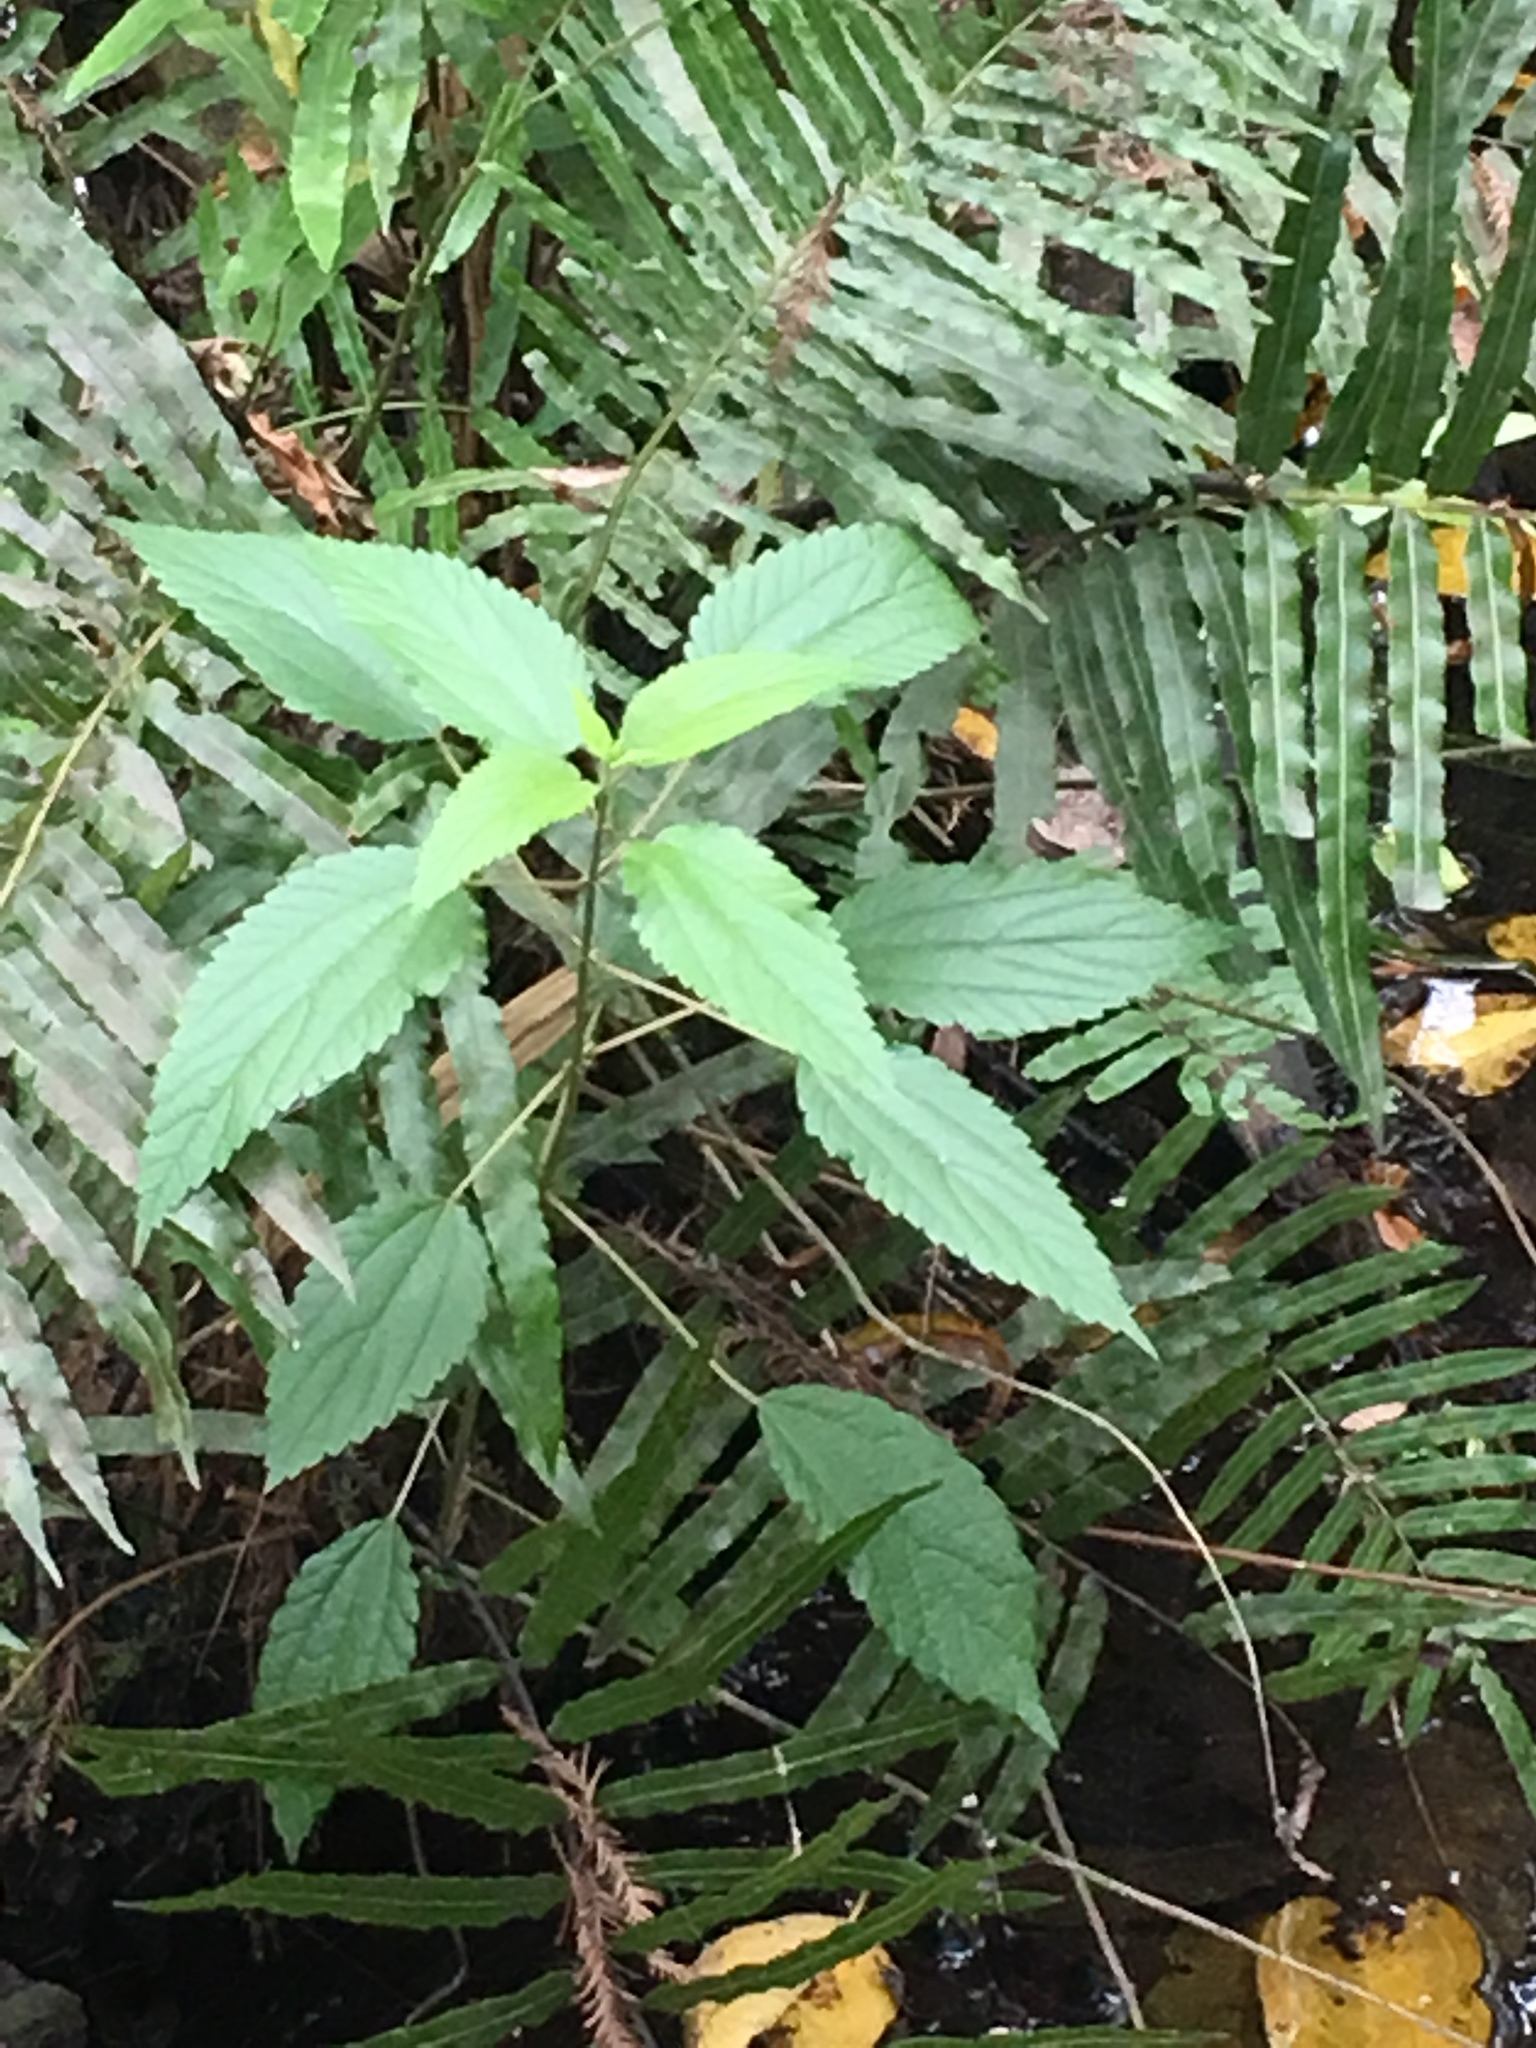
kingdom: Plantae
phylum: Tracheophyta
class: Magnoliopsida
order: Rosales
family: Urticaceae
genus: Boehmeria
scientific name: Boehmeria cylindrica
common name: Bog-hemp
